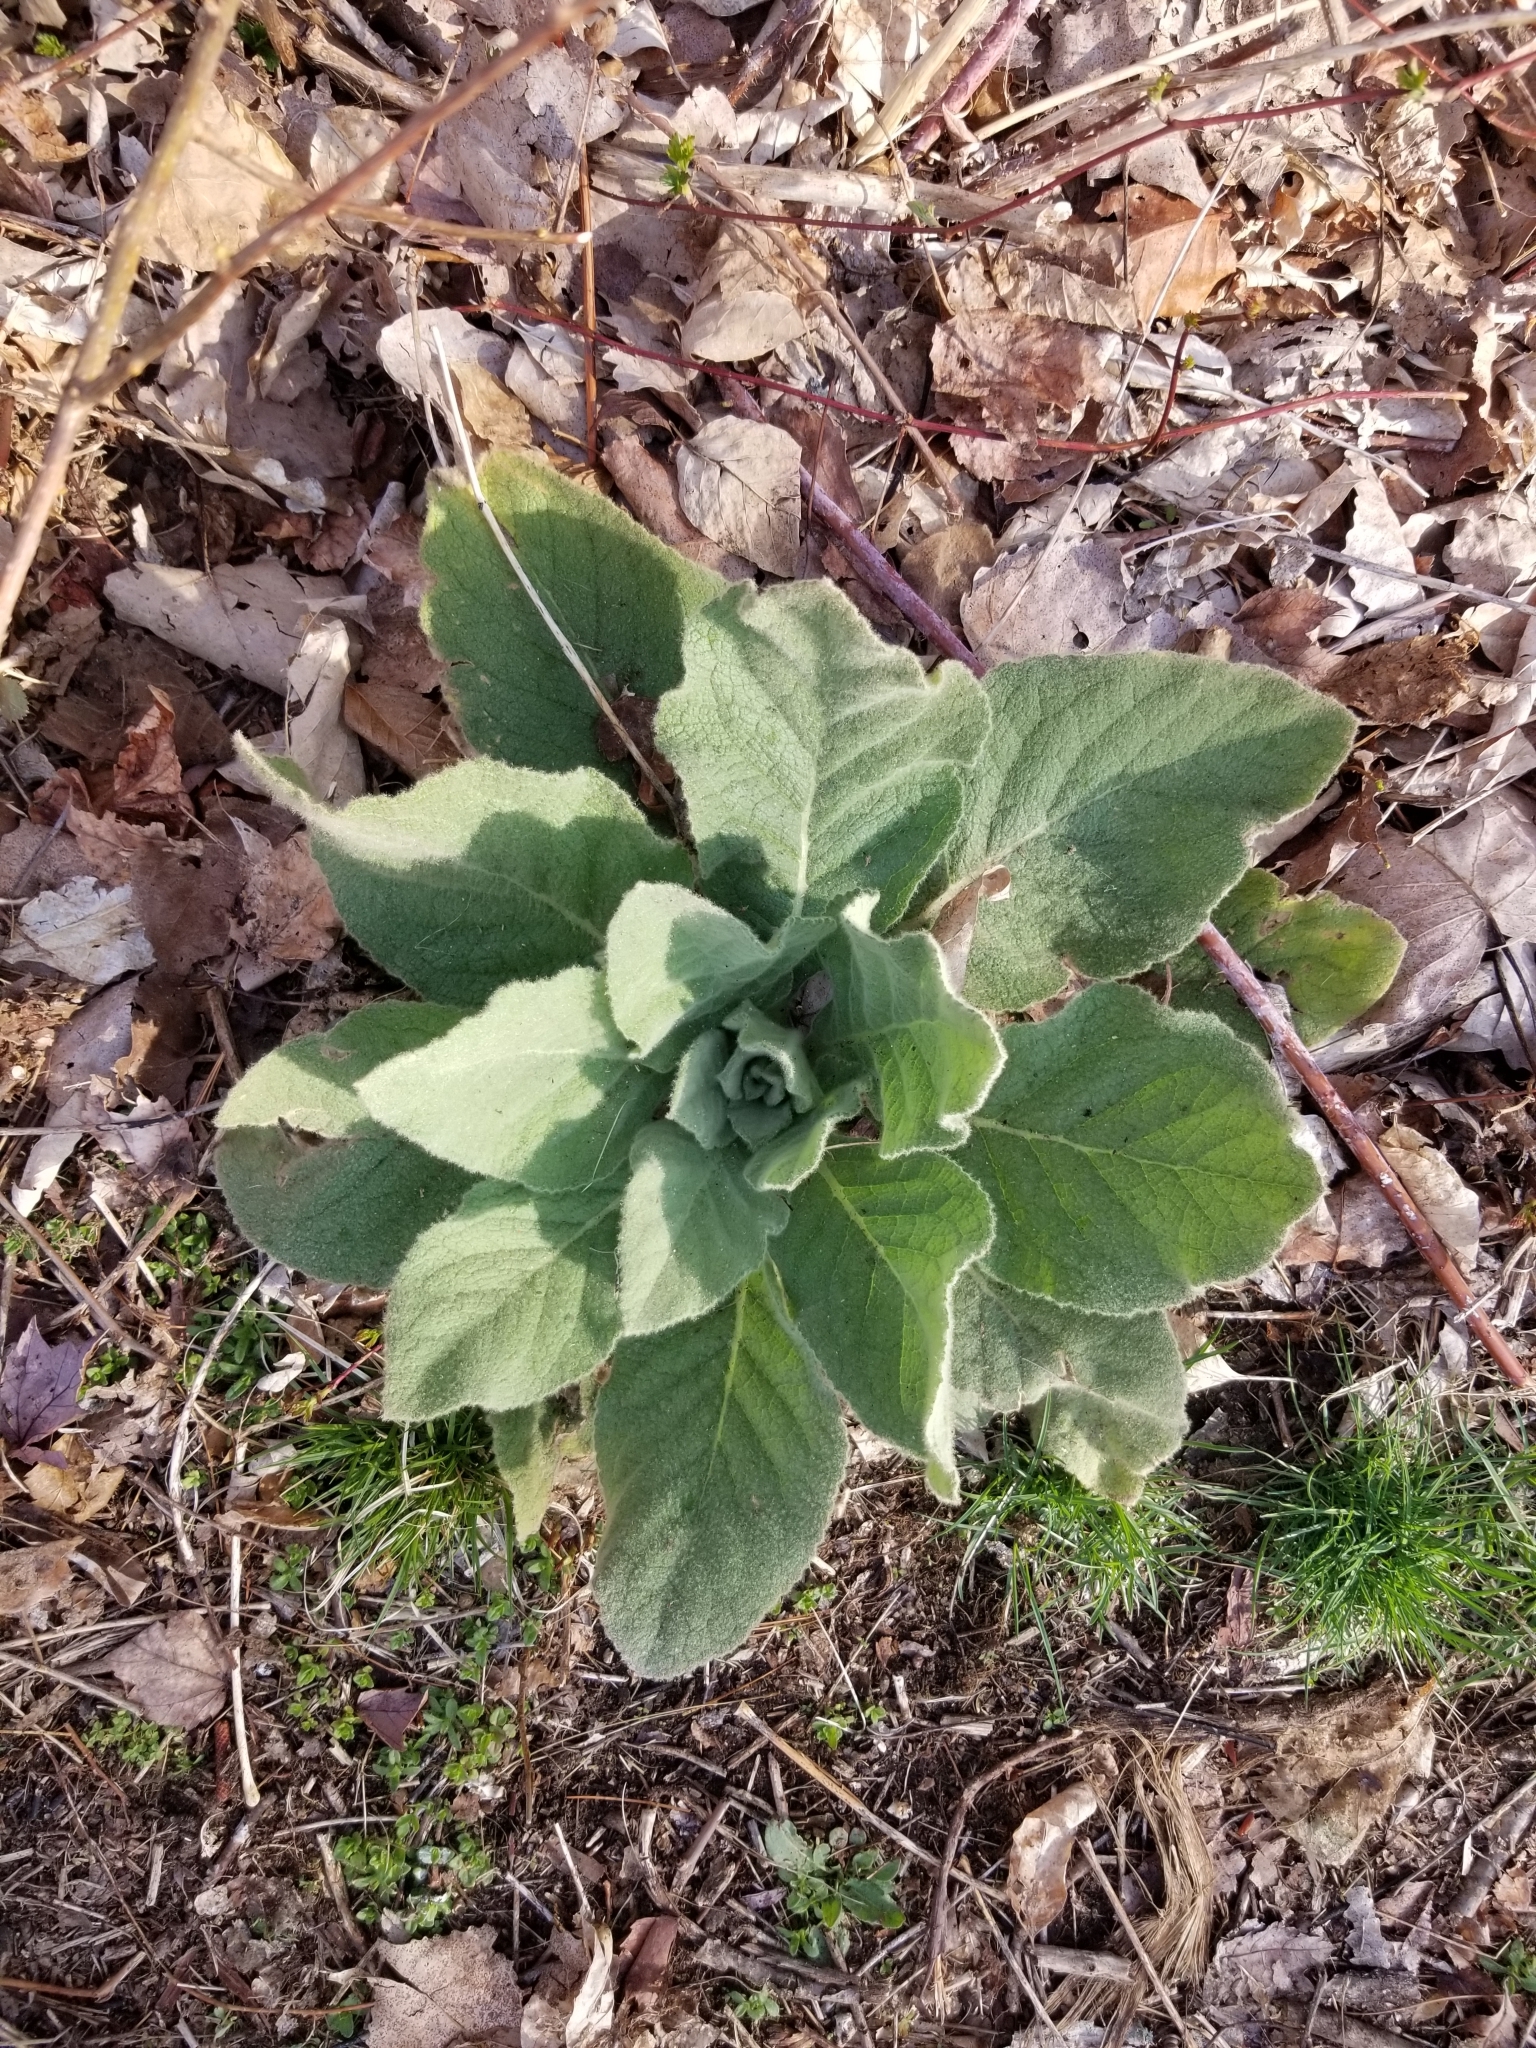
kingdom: Plantae
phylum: Tracheophyta
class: Magnoliopsida
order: Lamiales
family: Scrophulariaceae
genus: Verbascum
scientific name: Verbascum thapsus
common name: Common mullein
